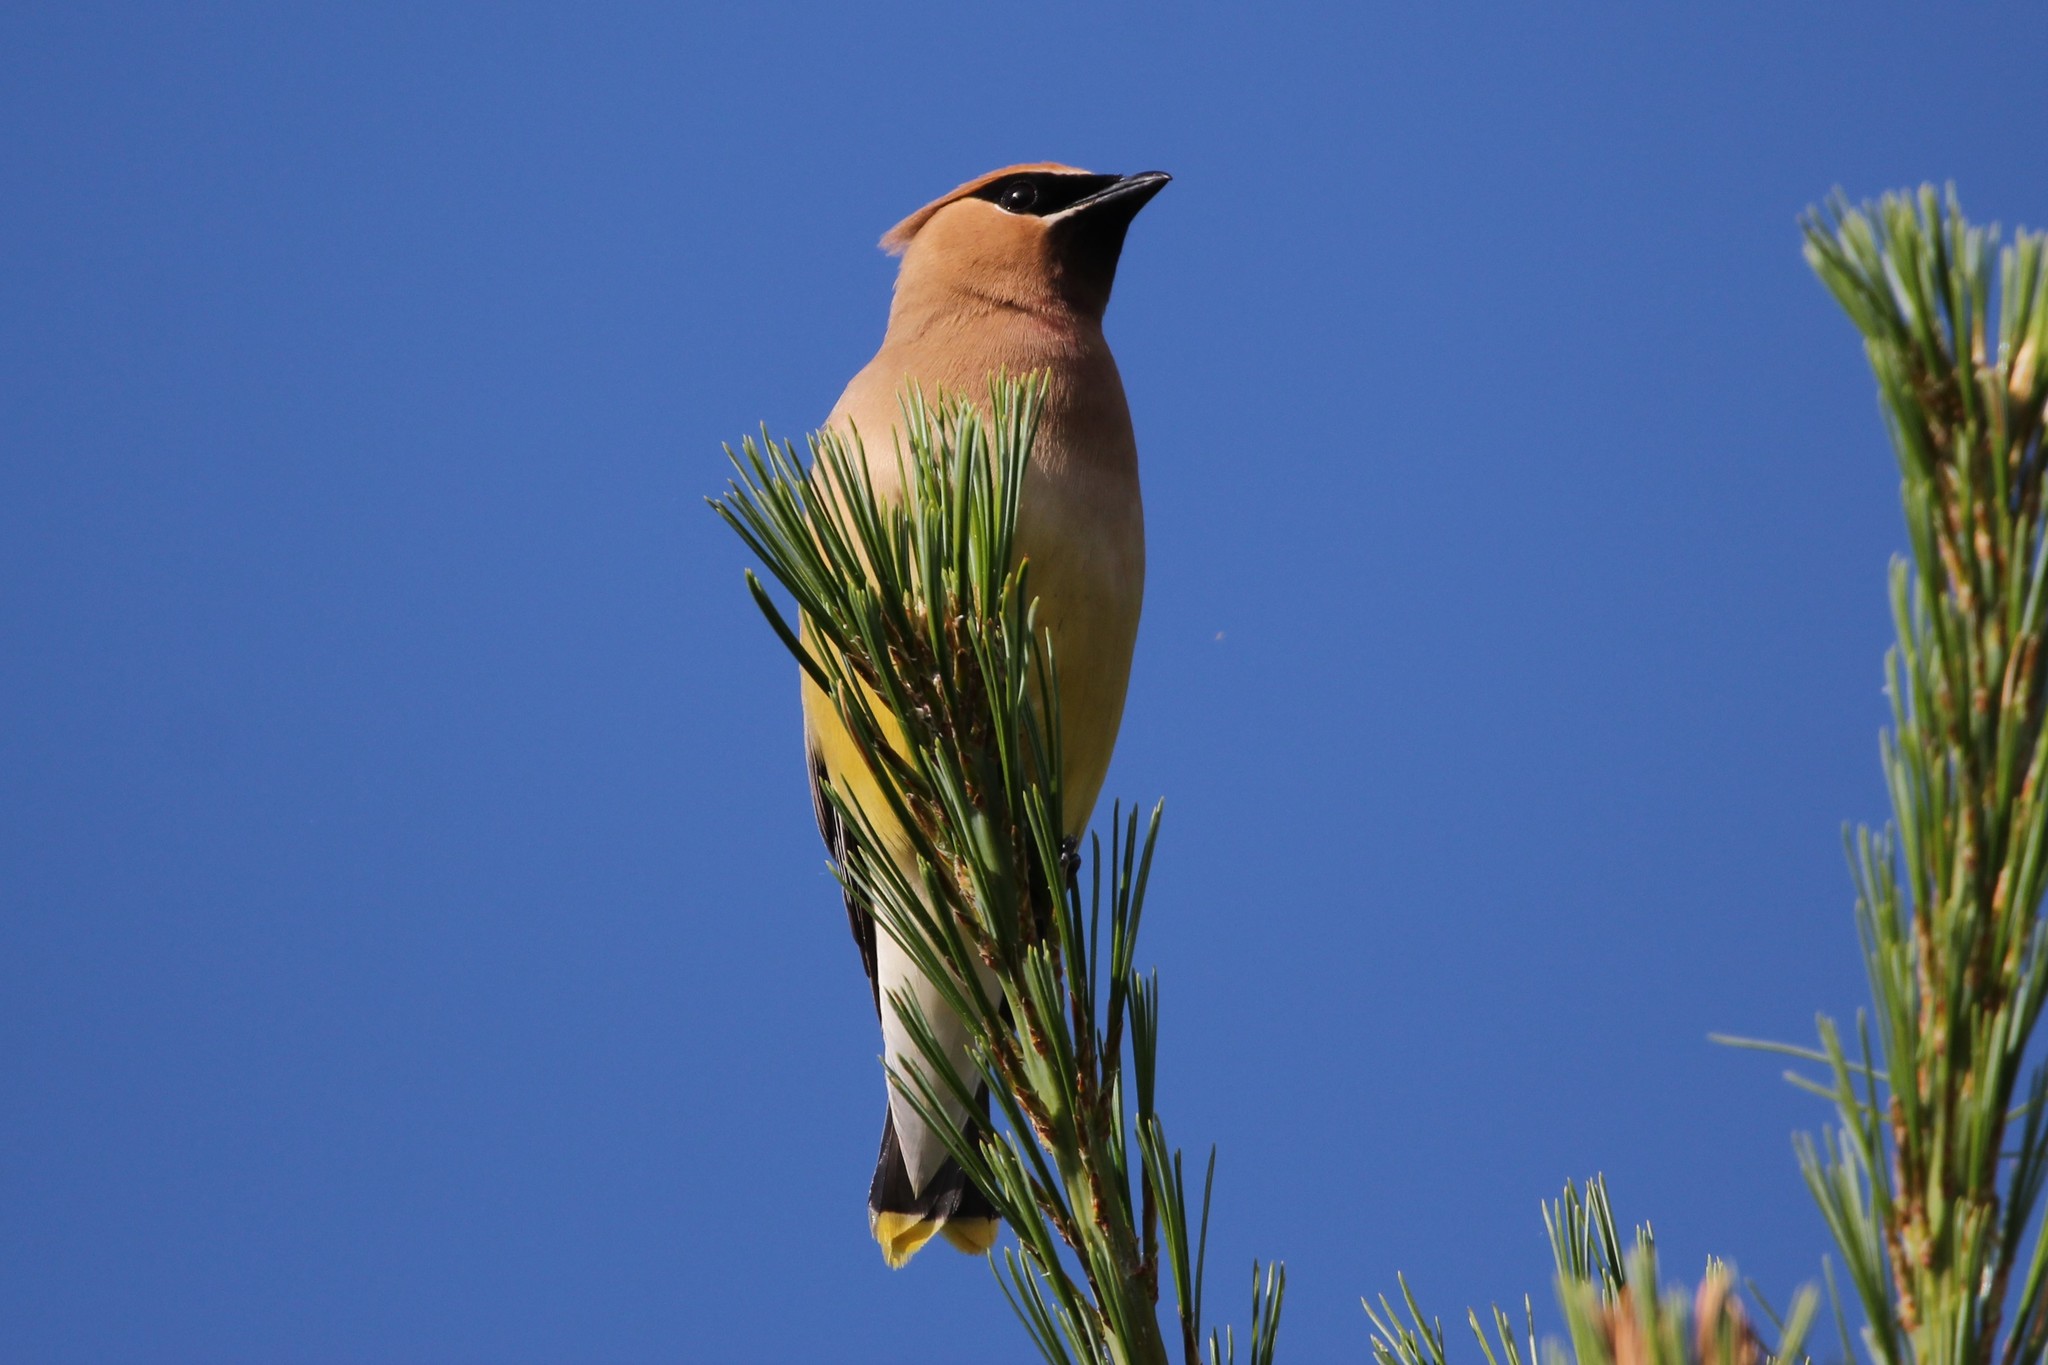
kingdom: Animalia
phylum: Chordata
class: Aves
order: Passeriformes
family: Bombycillidae
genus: Bombycilla
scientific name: Bombycilla cedrorum
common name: Cedar waxwing
